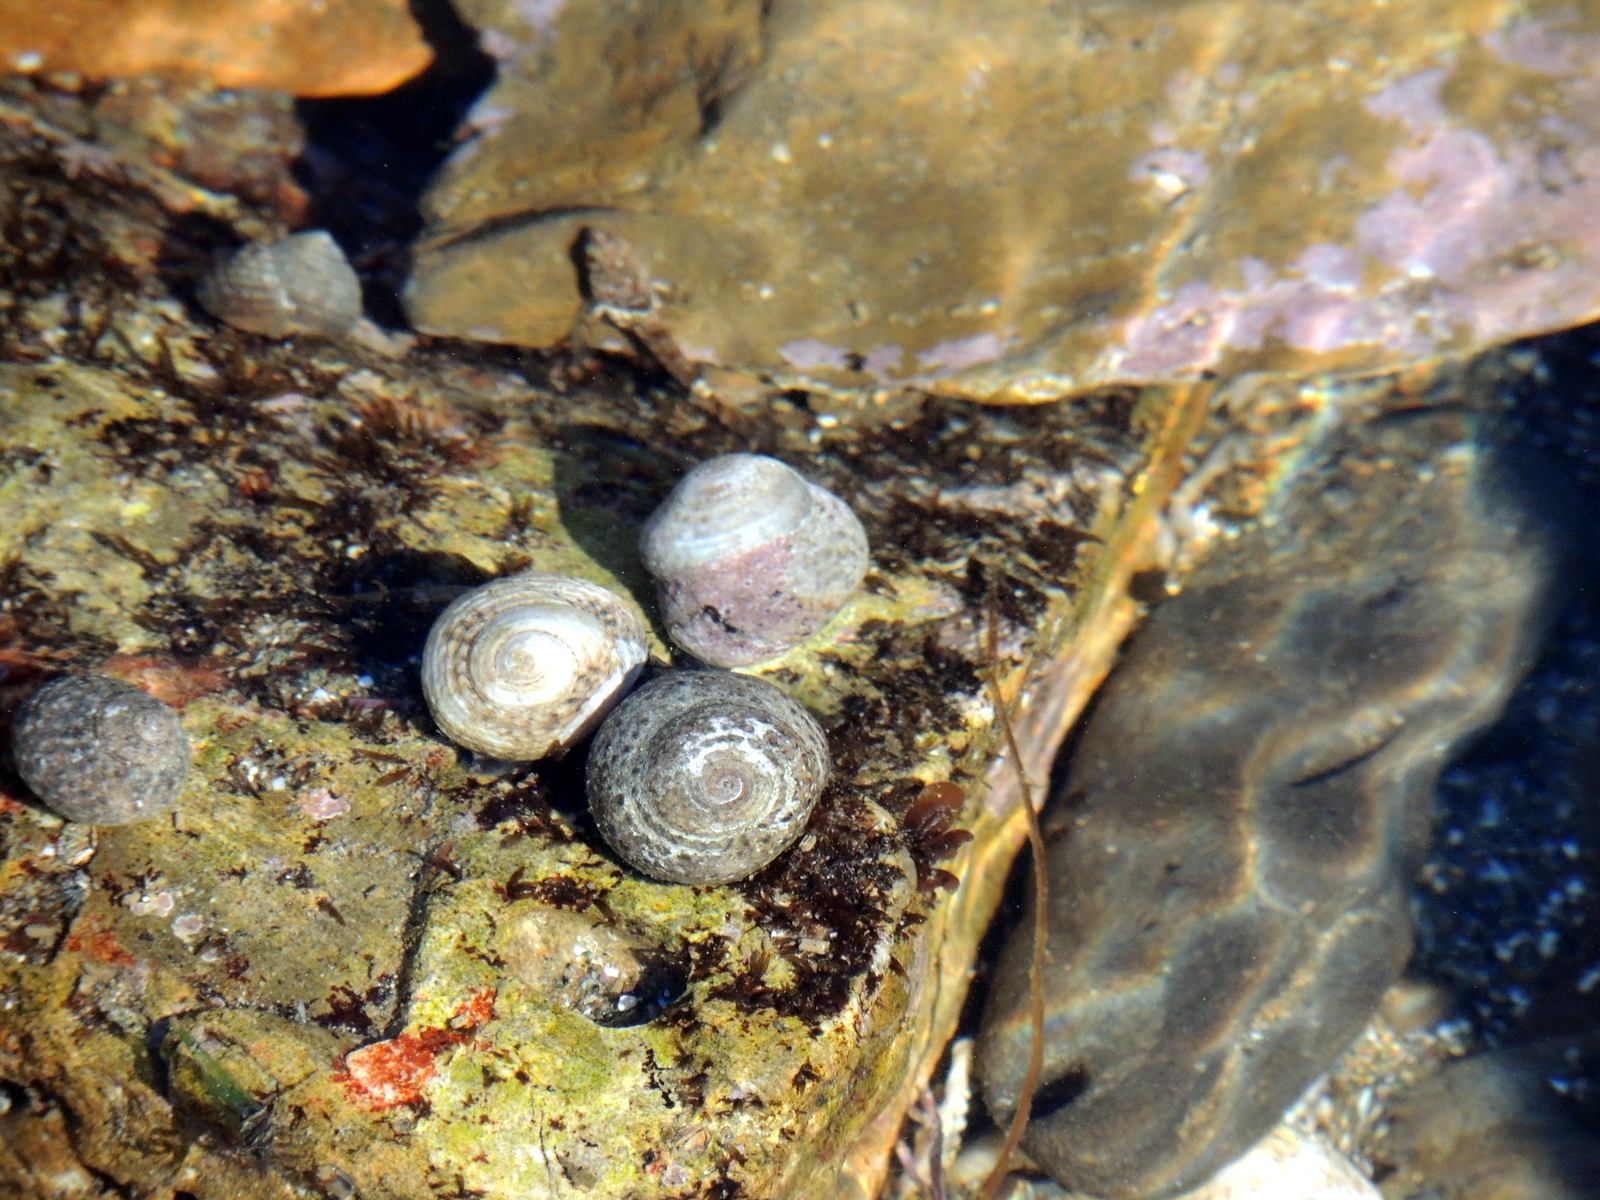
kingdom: Animalia
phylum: Mollusca
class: Gastropoda
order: Trochida
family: Tegulidae
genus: Tegula
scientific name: Tegula eiseni
